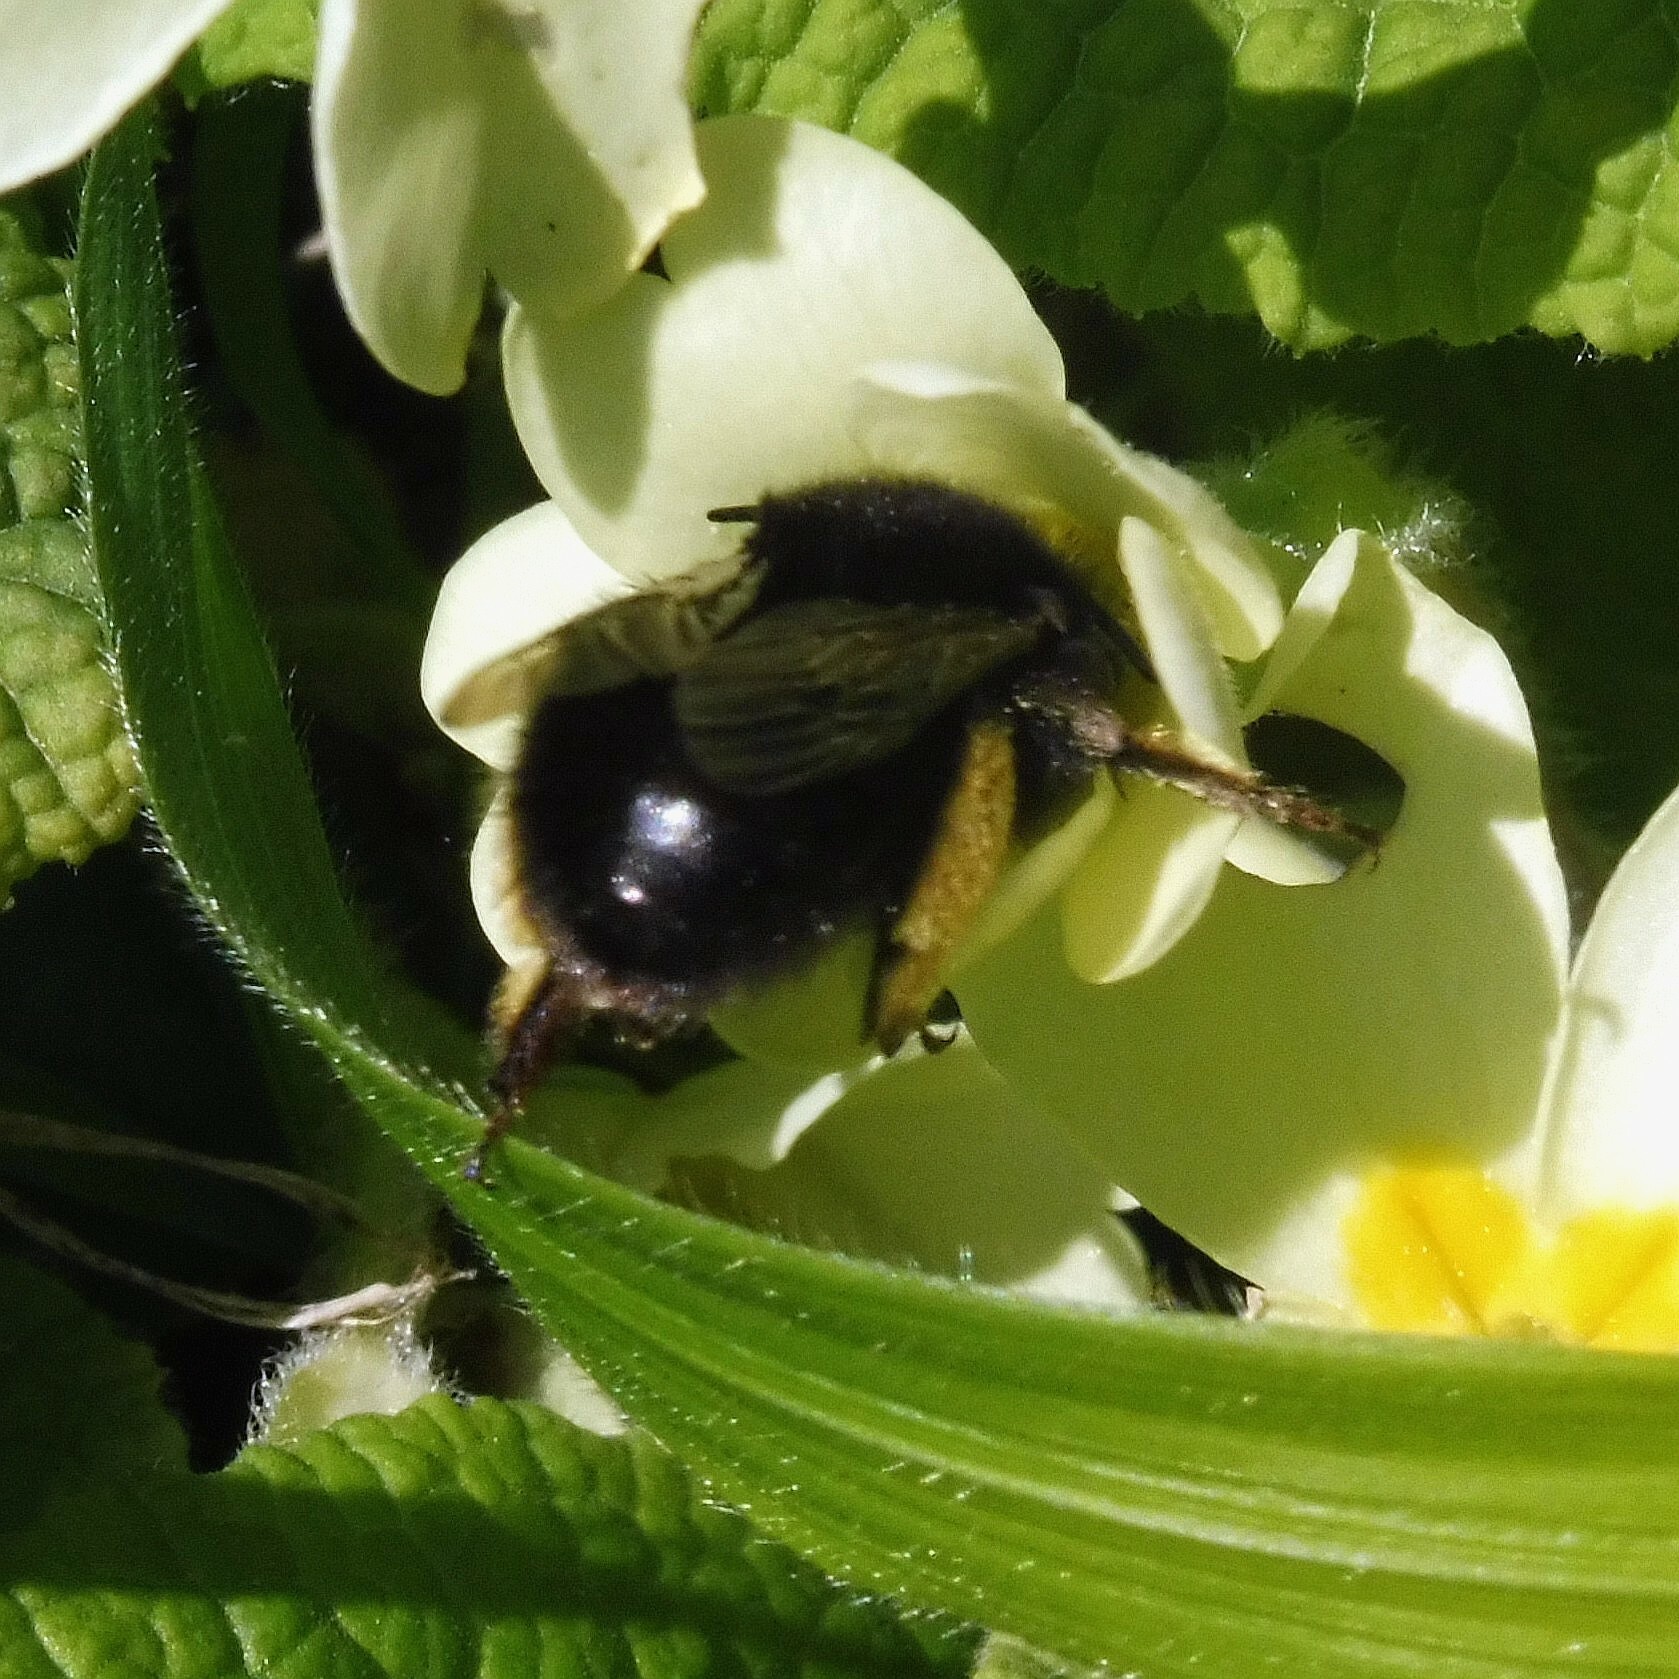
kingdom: Animalia
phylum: Arthropoda
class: Insecta
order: Hymenoptera
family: Apidae
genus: Anthophora
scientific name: Anthophora plumipes
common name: Hairy-footed flower bee
